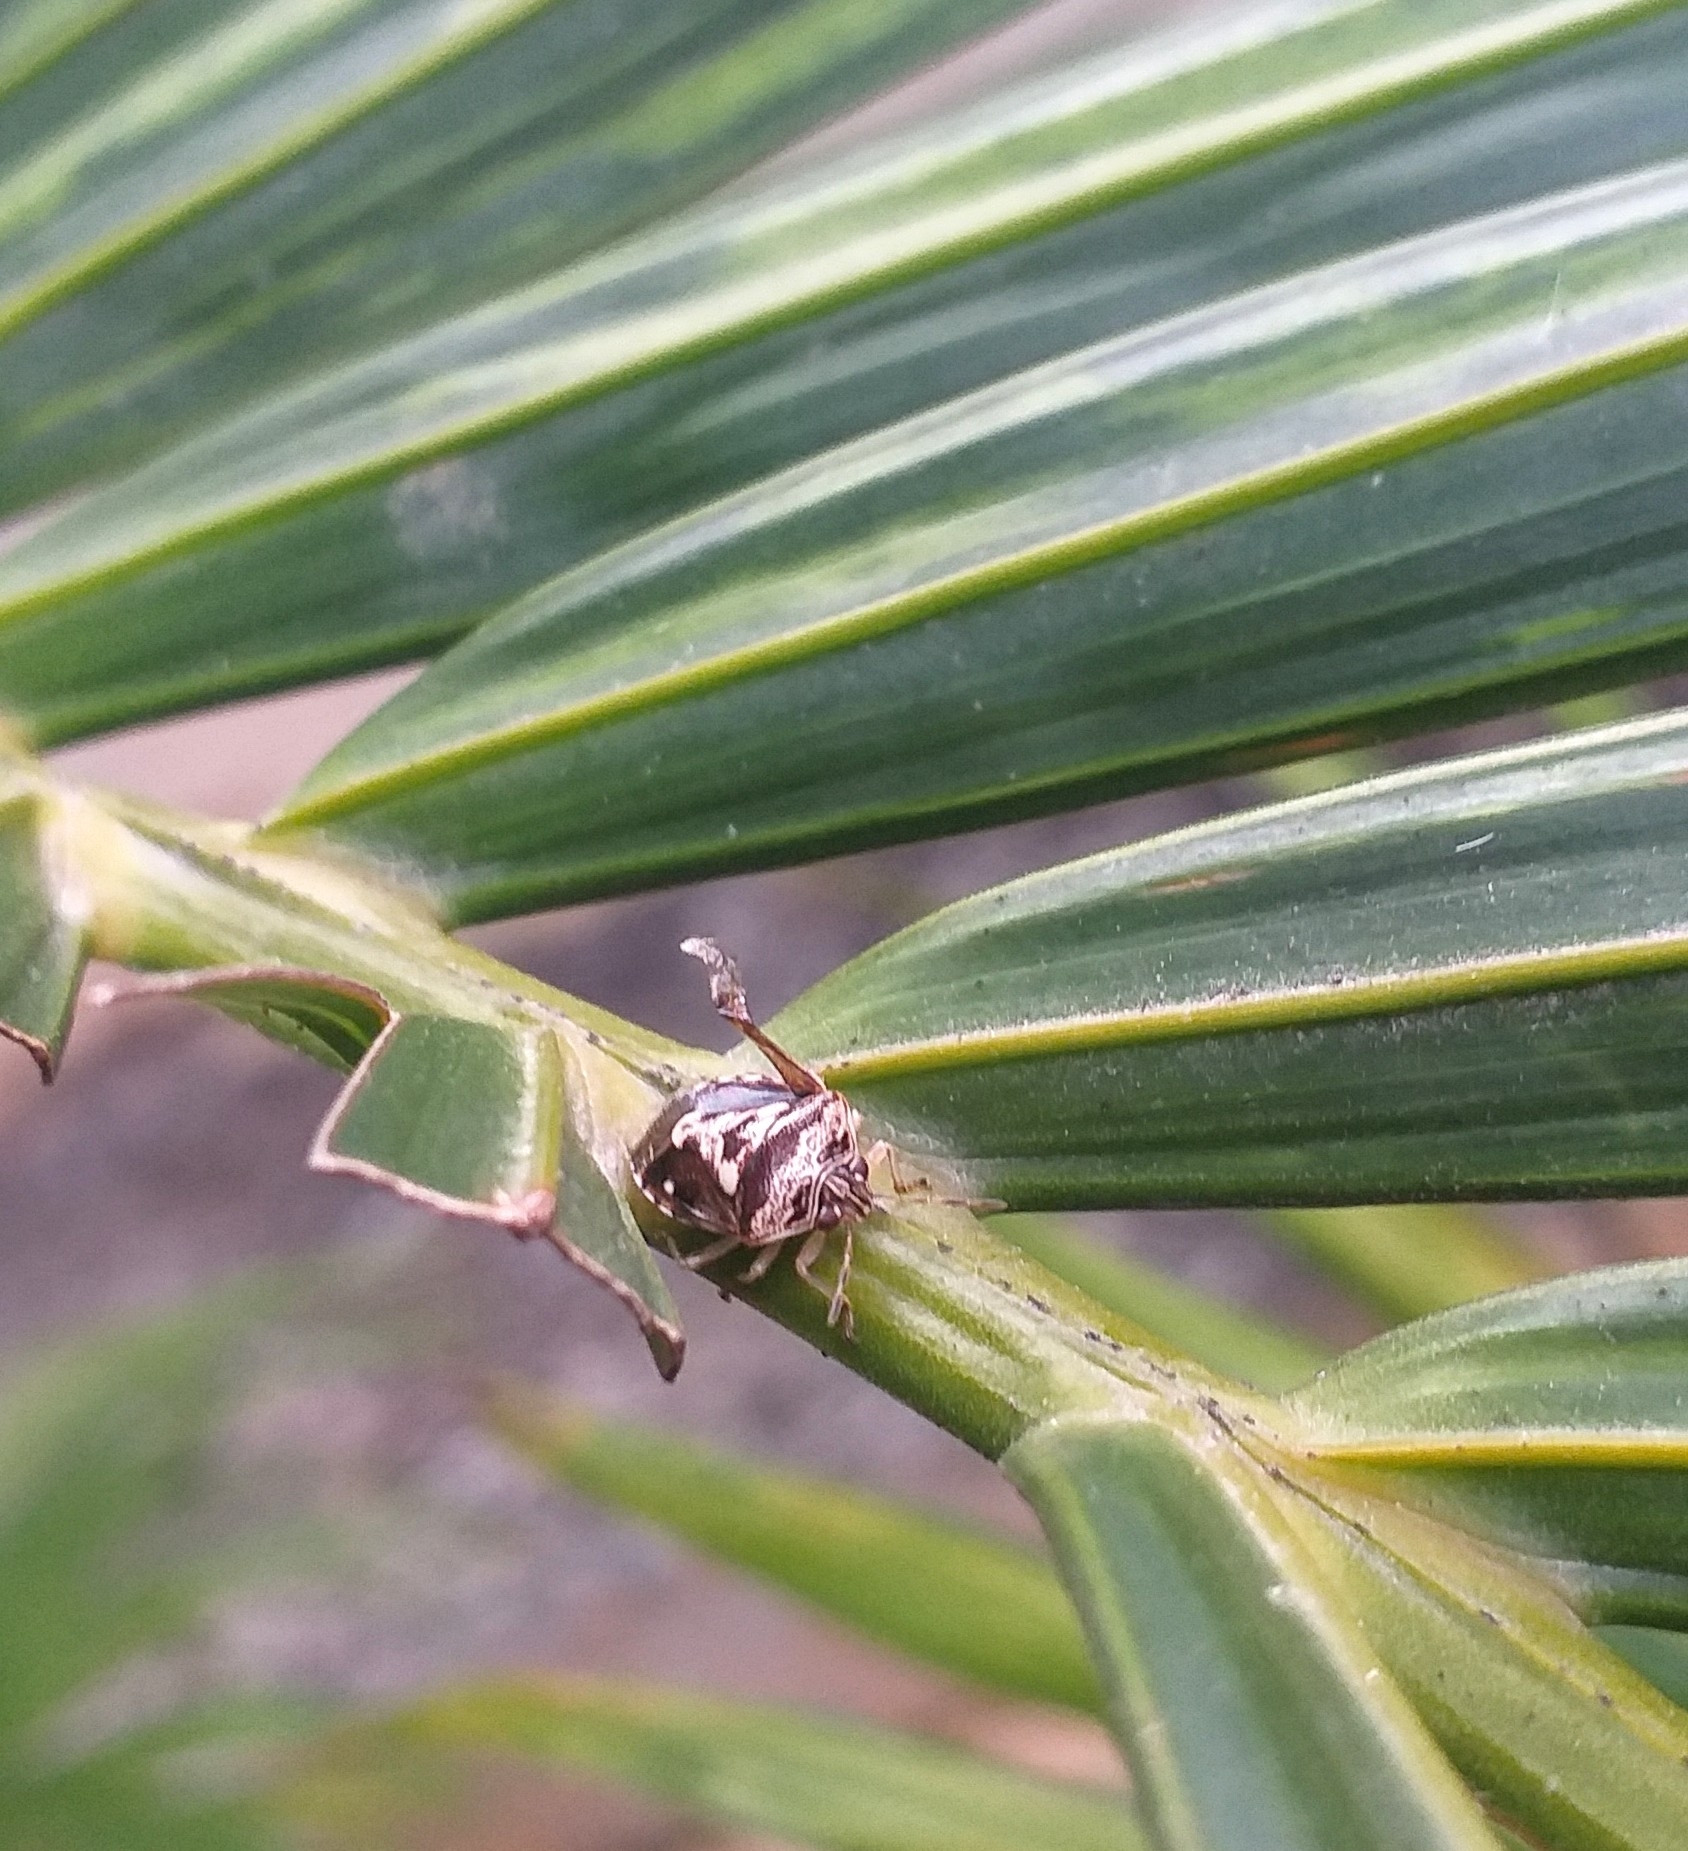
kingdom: Animalia
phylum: Arthropoda
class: Insecta
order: Hemiptera
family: Pentatomidae
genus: Menida
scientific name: Menida formosa
